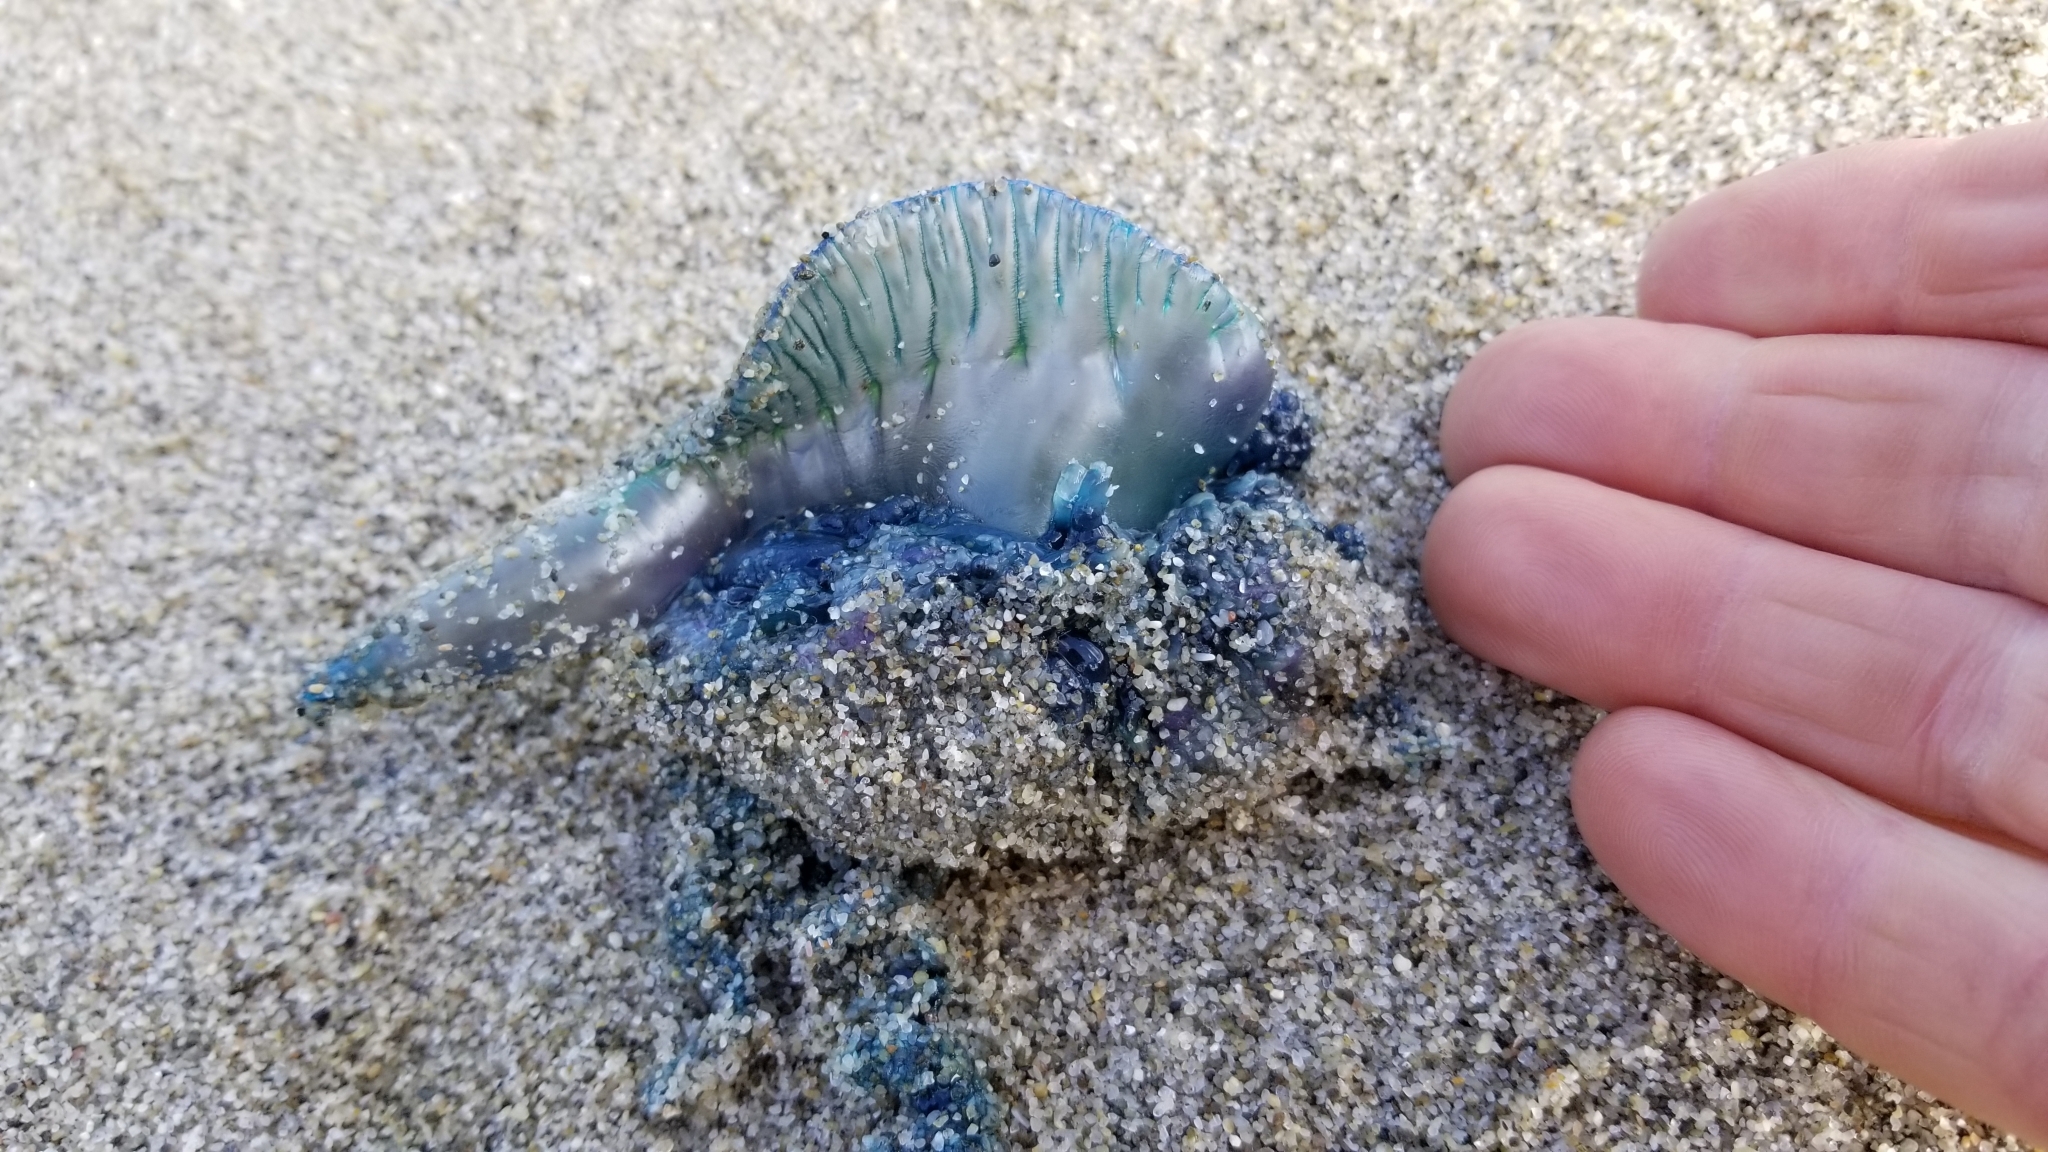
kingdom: Animalia
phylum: Cnidaria
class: Hydrozoa
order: Siphonophorae
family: Physaliidae
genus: Physalia
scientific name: Physalia physalis
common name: Portuguese man-of-war
